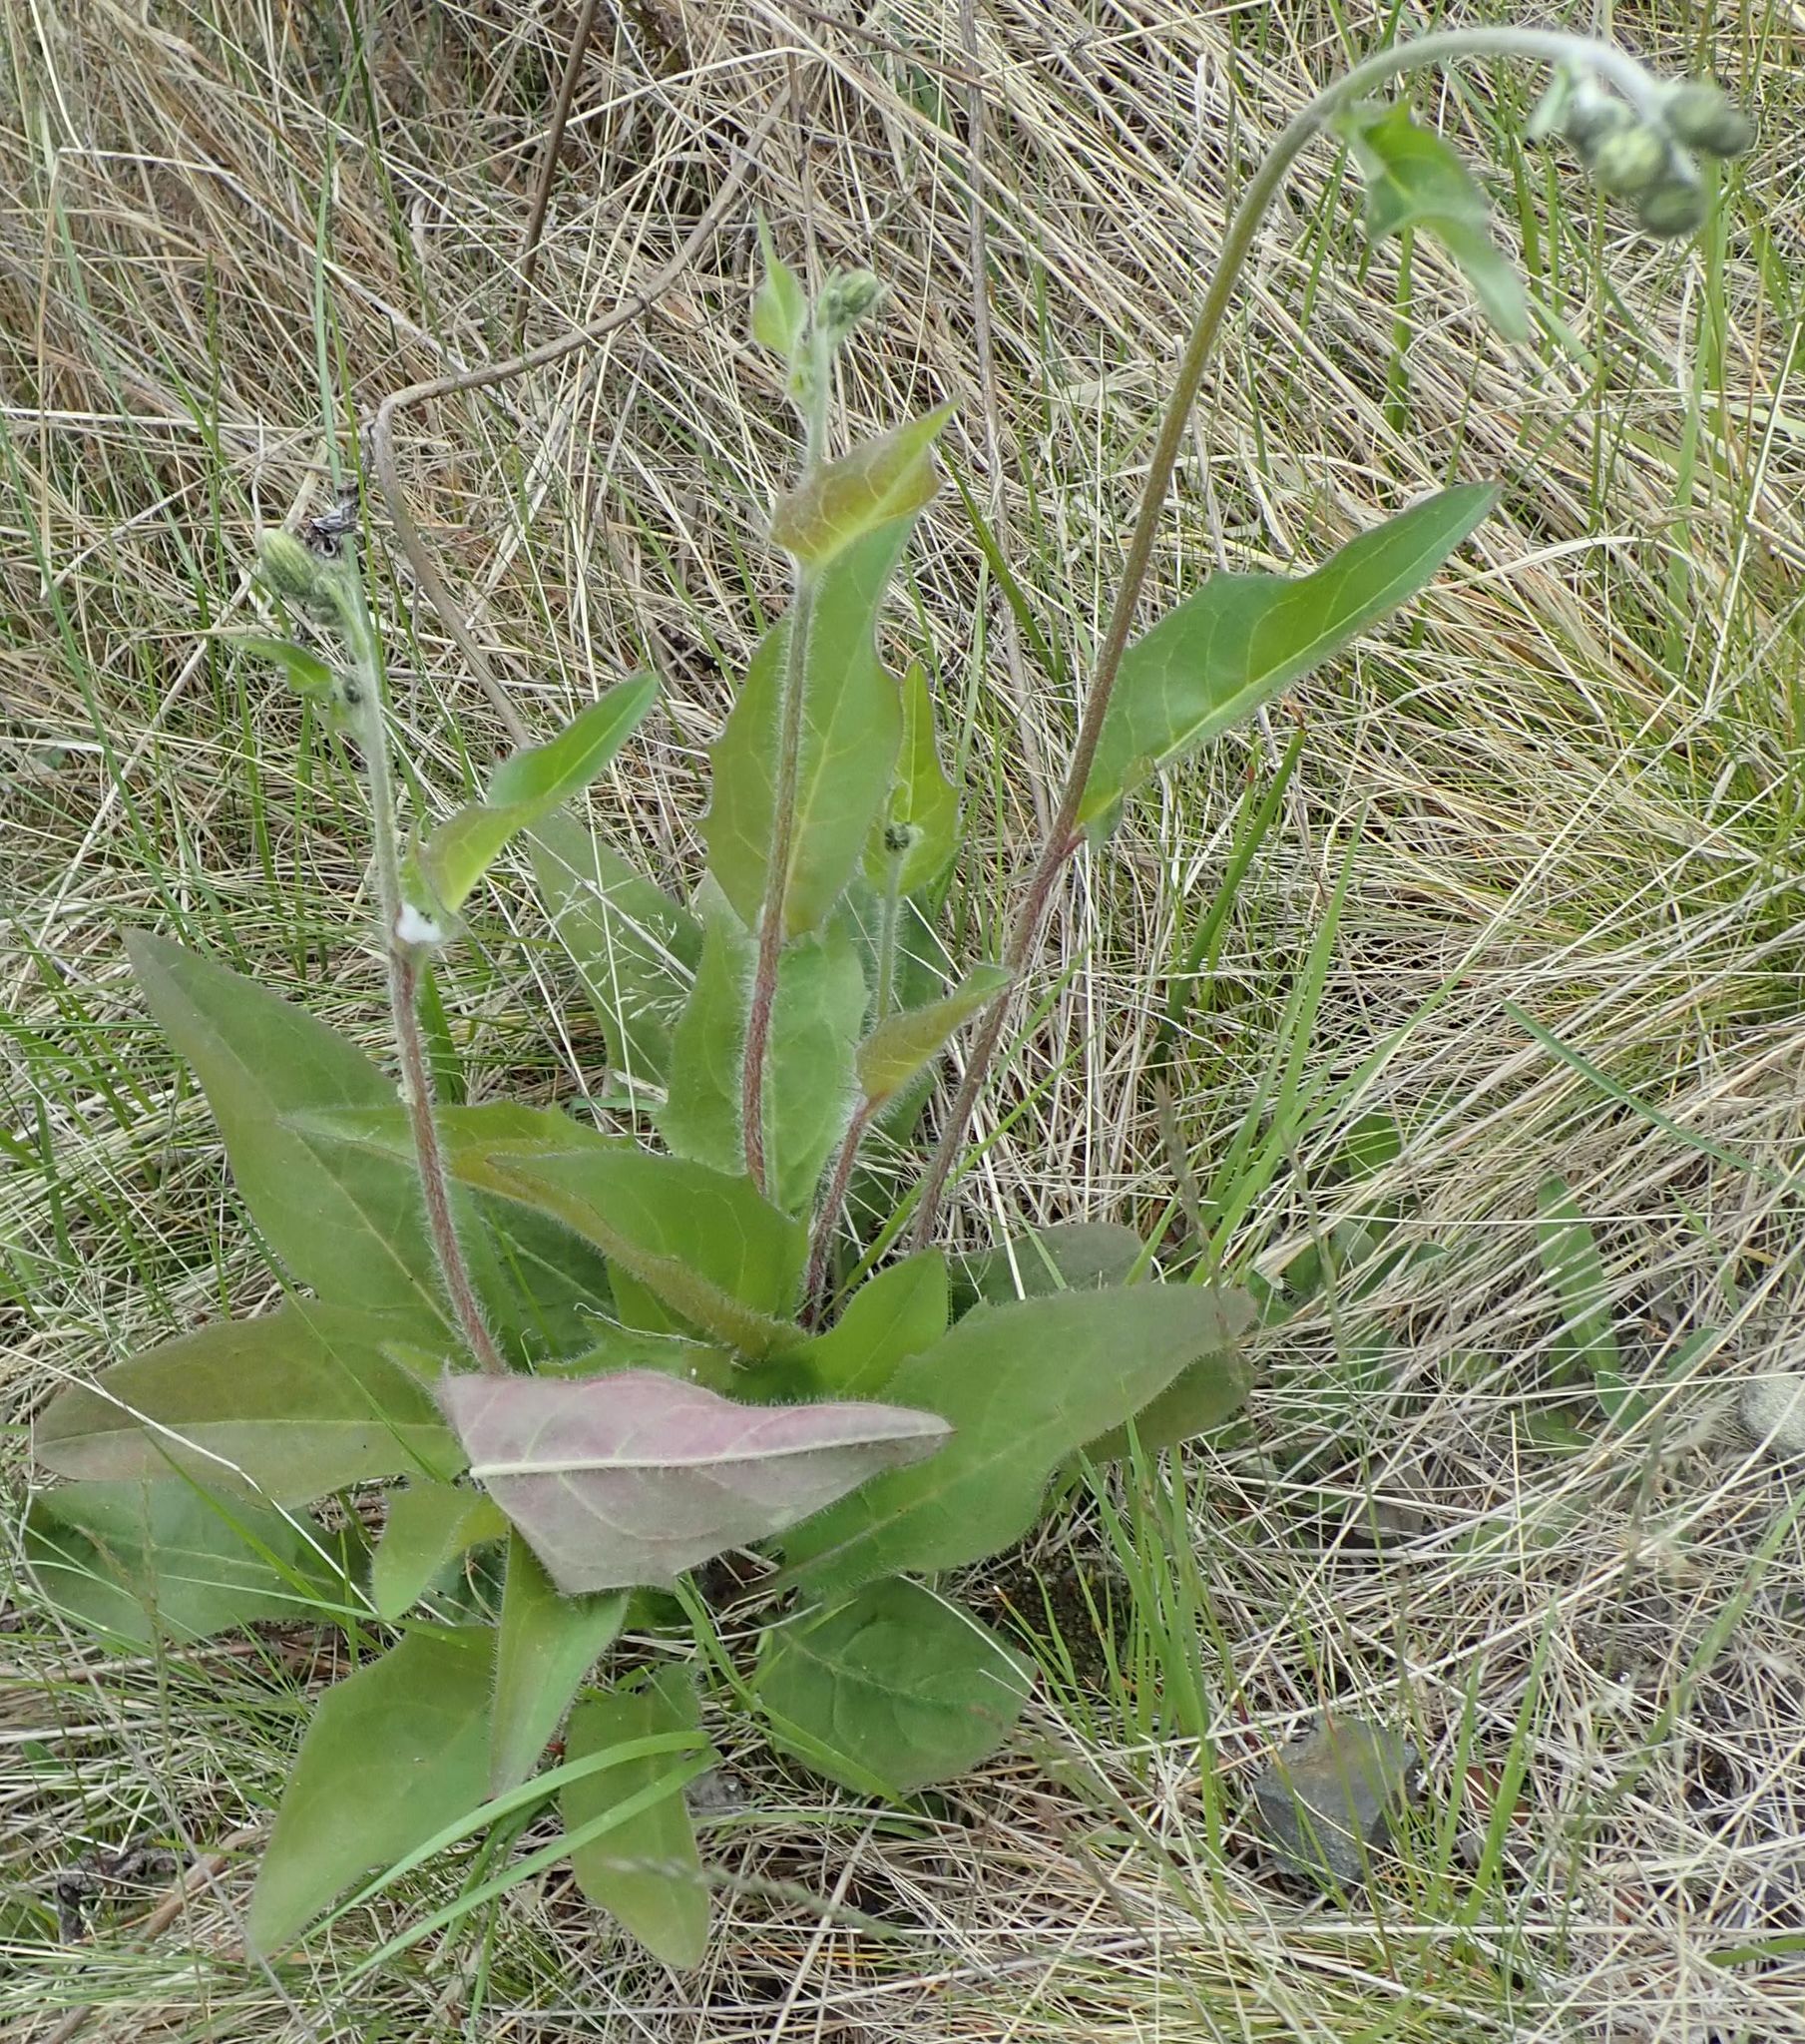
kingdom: Plantae
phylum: Tracheophyta
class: Magnoliopsida
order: Asterales
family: Asteraceae
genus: Hieracium
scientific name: Hieracium lepidulum
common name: Irregular-toothed hawkweed
